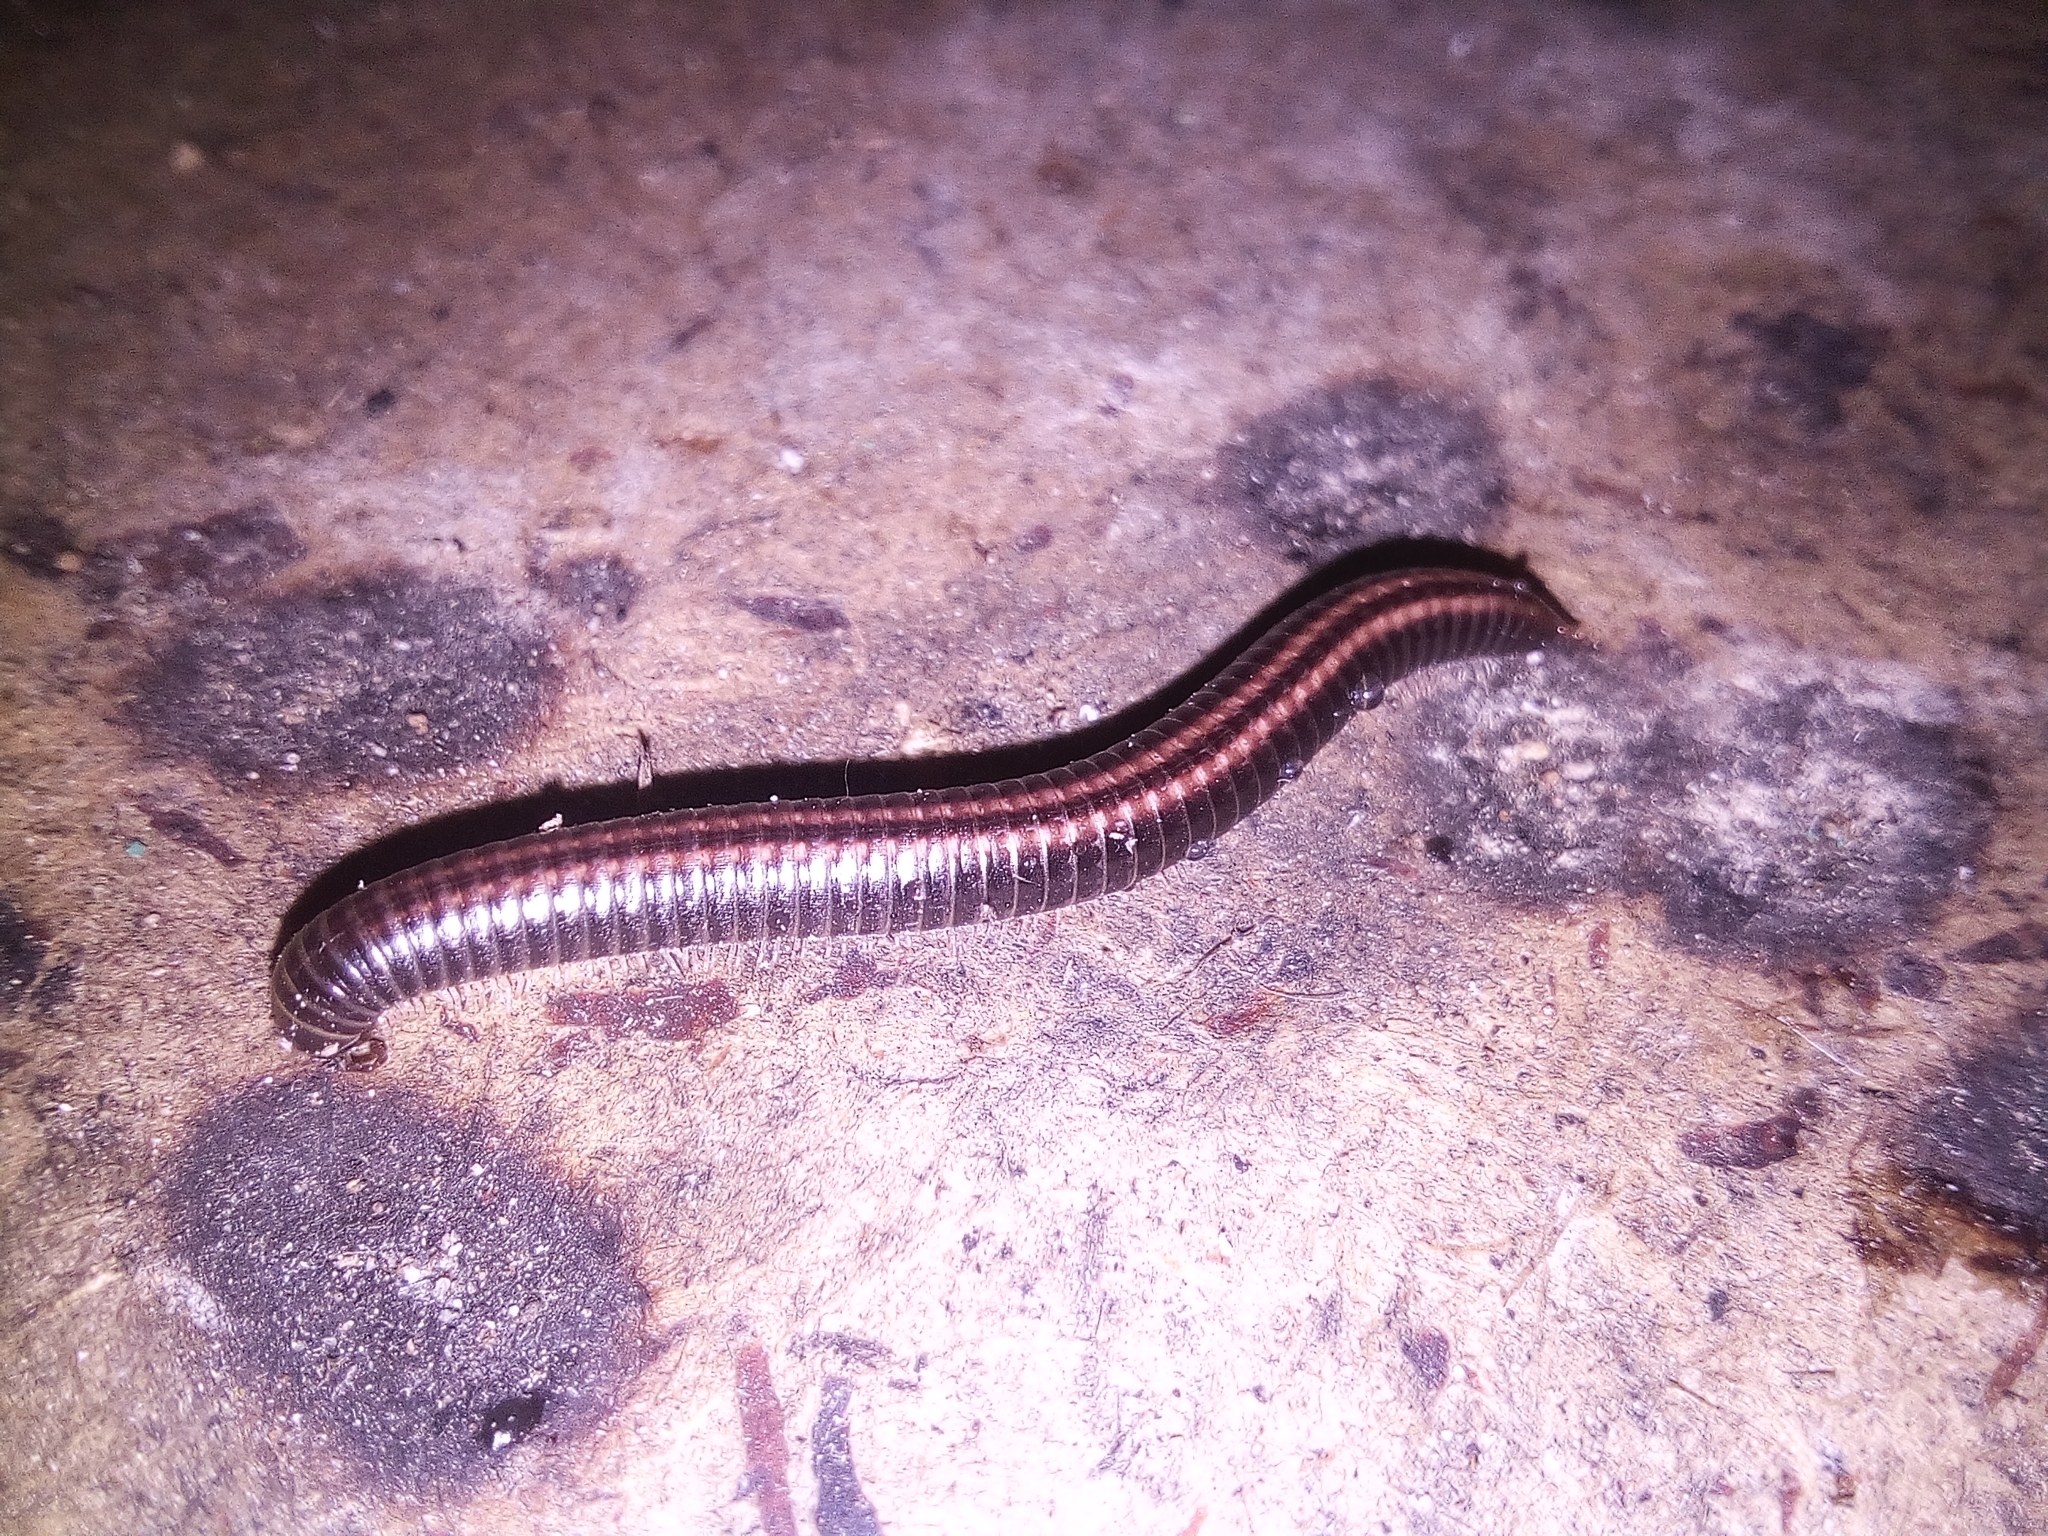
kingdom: Animalia
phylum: Arthropoda
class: Diplopoda
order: Julida
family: Julidae
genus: Ommatoiulus
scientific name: Ommatoiulus sabulosus
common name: Striped millipede
